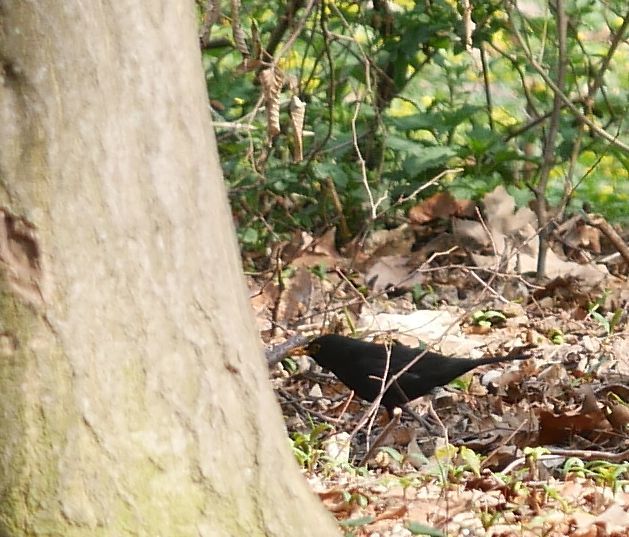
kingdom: Animalia
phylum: Chordata
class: Aves
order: Passeriformes
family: Turdidae
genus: Turdus
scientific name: Turdus merula
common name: Common blackbird
